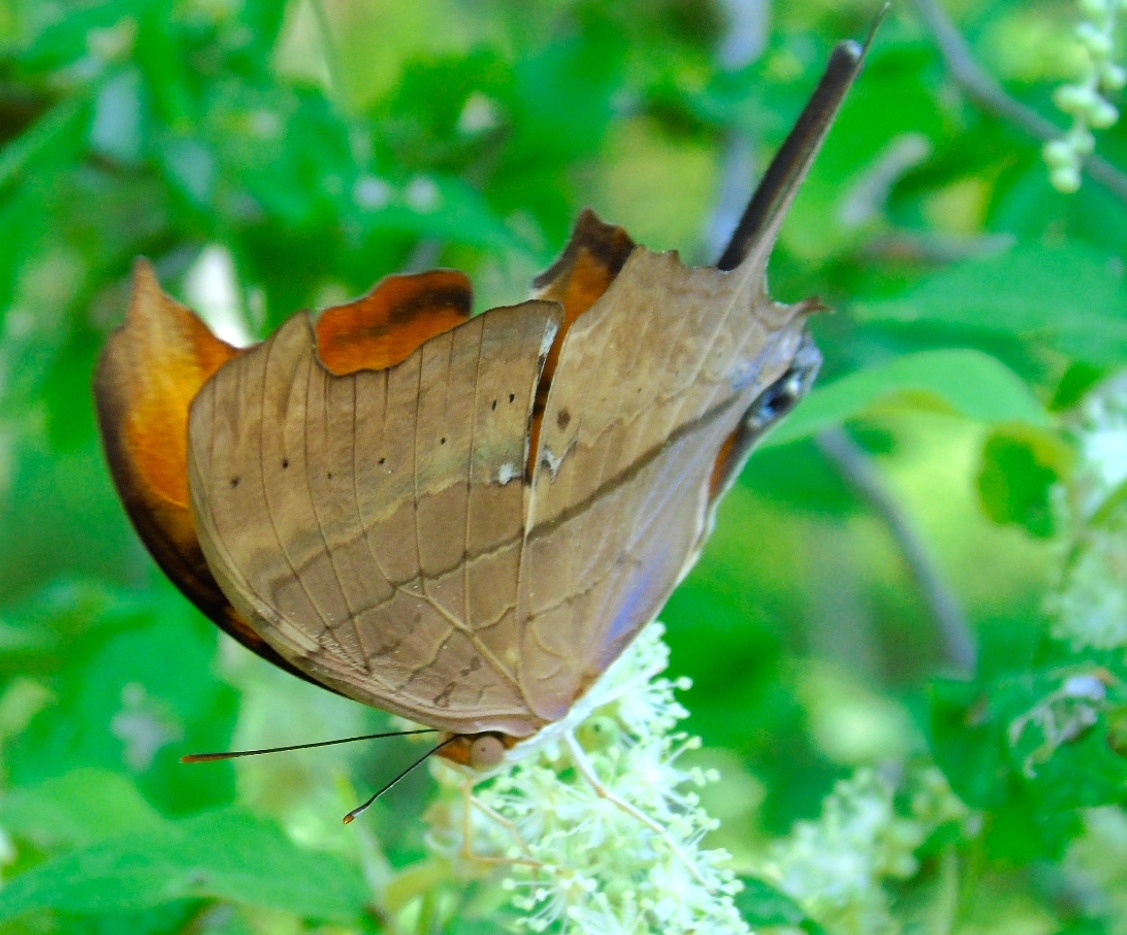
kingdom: Animalia
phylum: Arthropoda
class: Insecta
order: Lepidoptera
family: Nymphalidae
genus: Marpesia
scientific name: Marpesia petreus
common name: Red dagger wing
